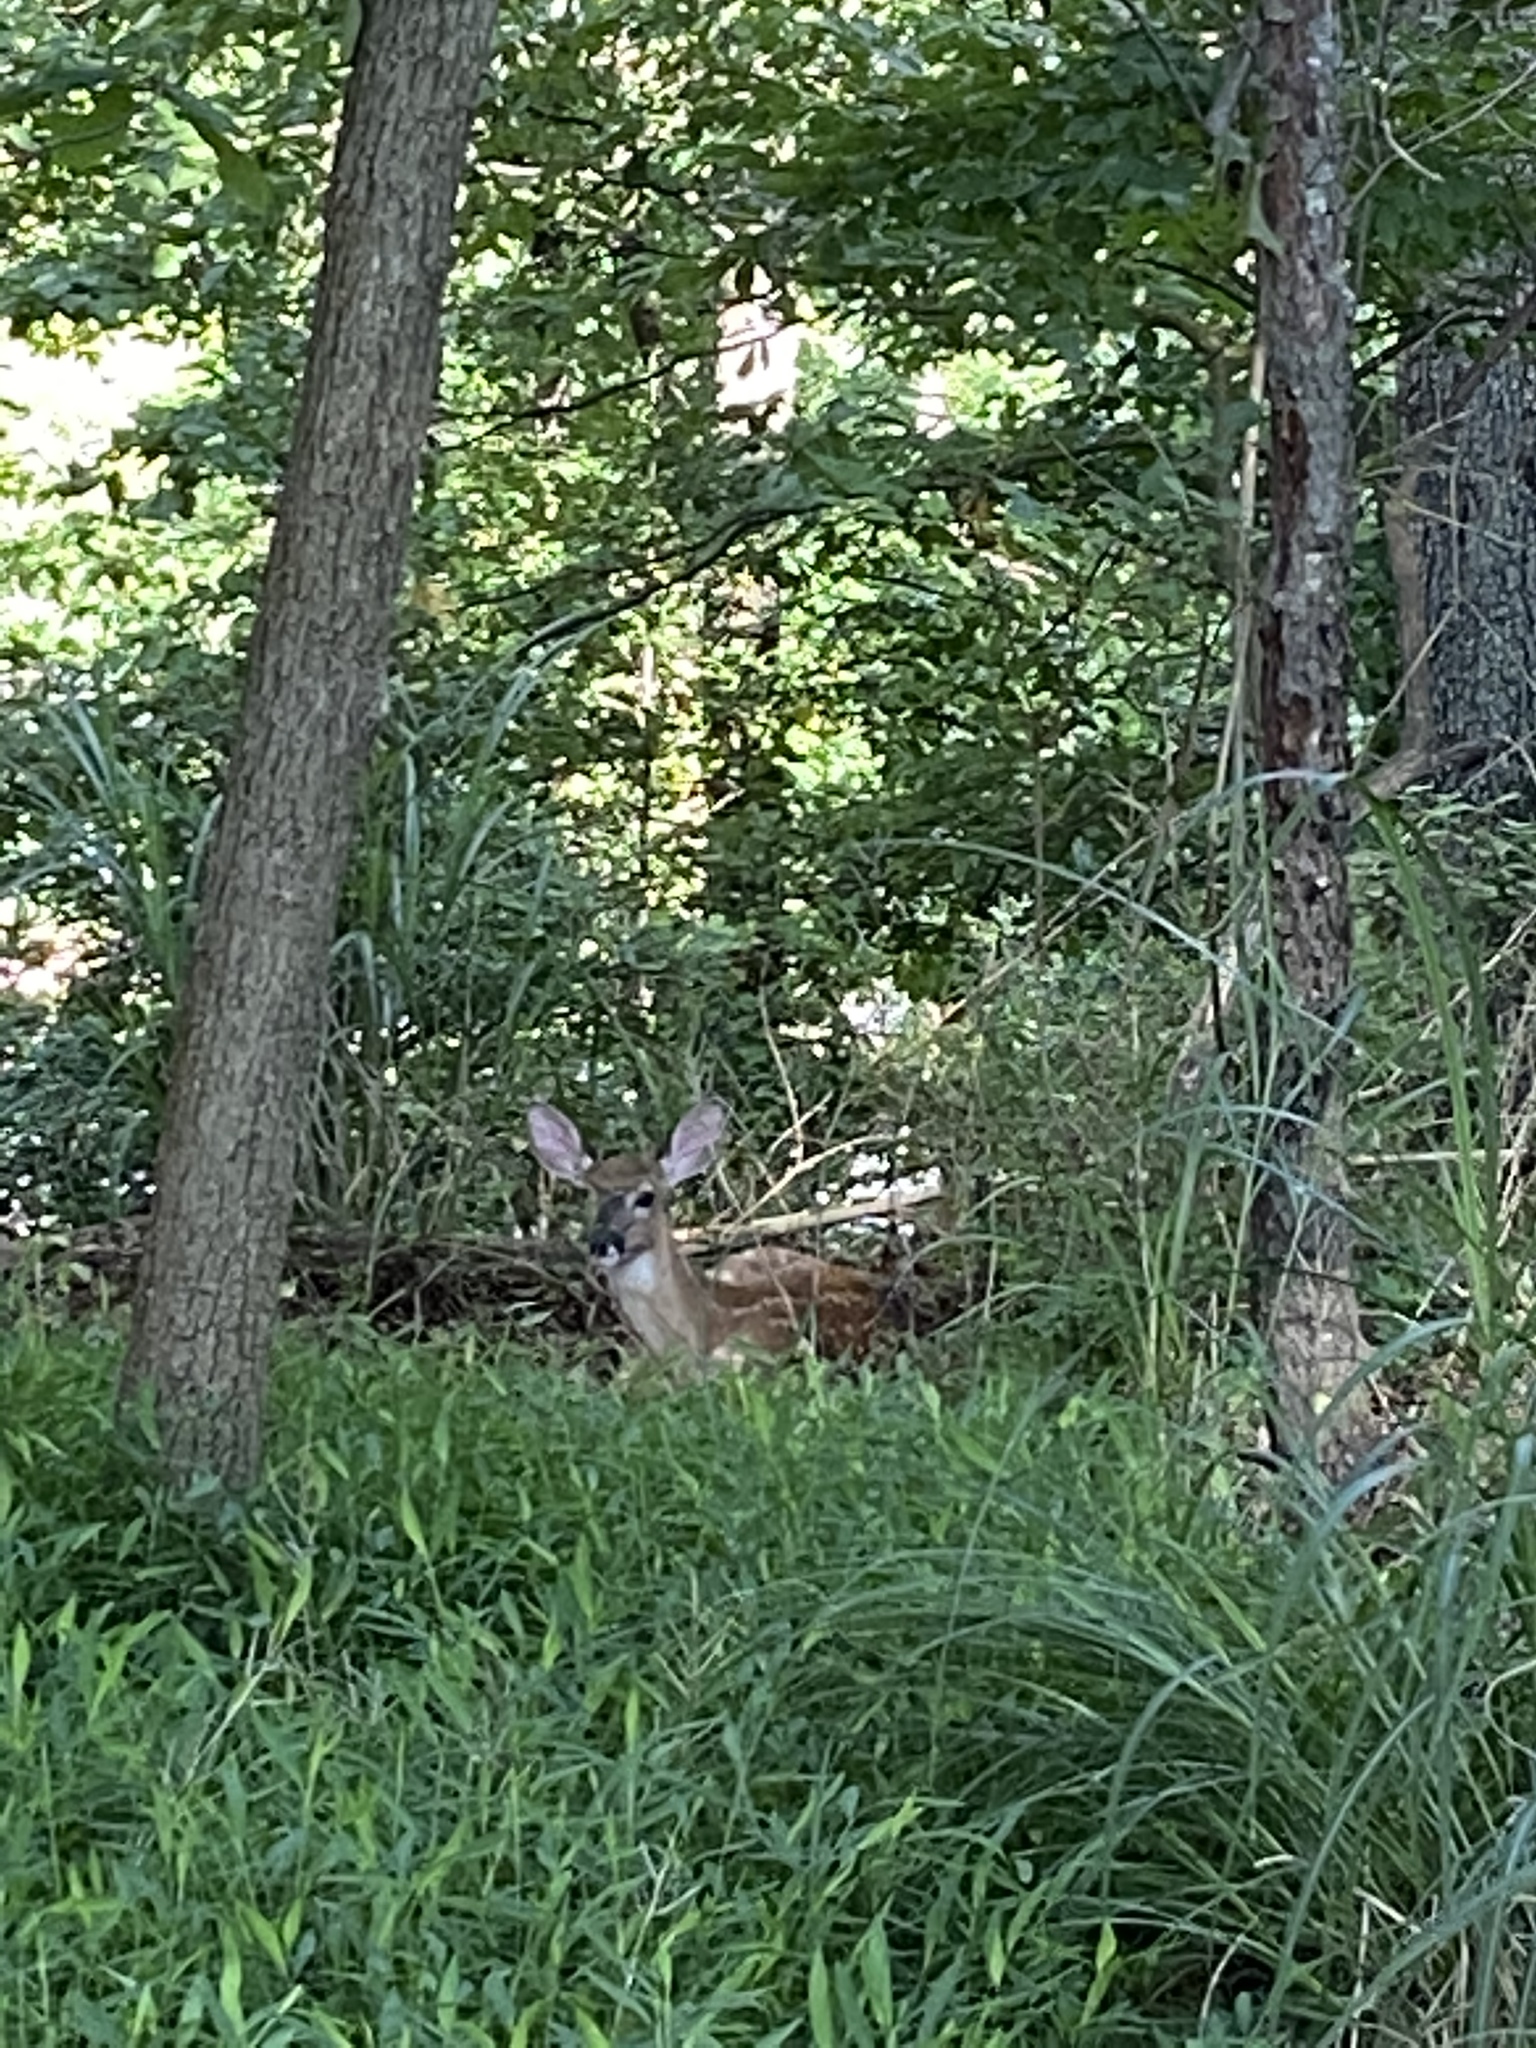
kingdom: Animalia
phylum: Chordata
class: Mammalia
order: Artiodactyla
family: Cervidae
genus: Odocoileus
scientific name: Odocoileus virginianus
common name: White-tailed deer
